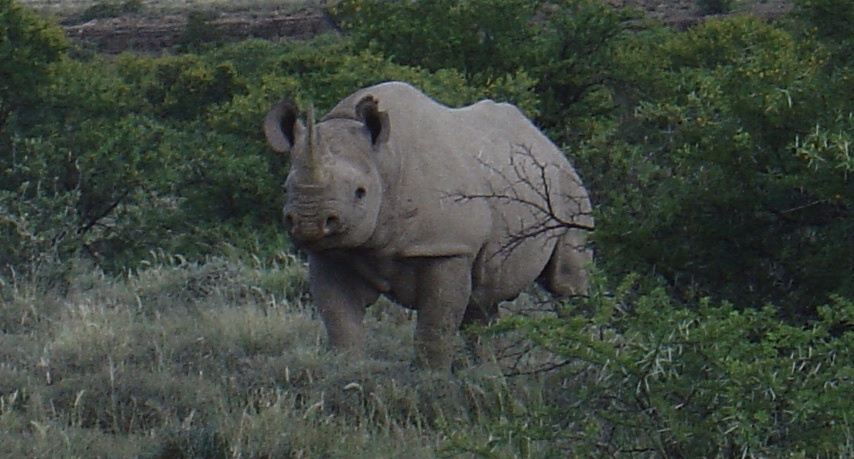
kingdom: Animalia
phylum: Chordata
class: Mammalia
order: Perissodactyla
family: Rhinocerotidae
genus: Diceros
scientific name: Diceros bicornis
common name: Black rhinoceros
